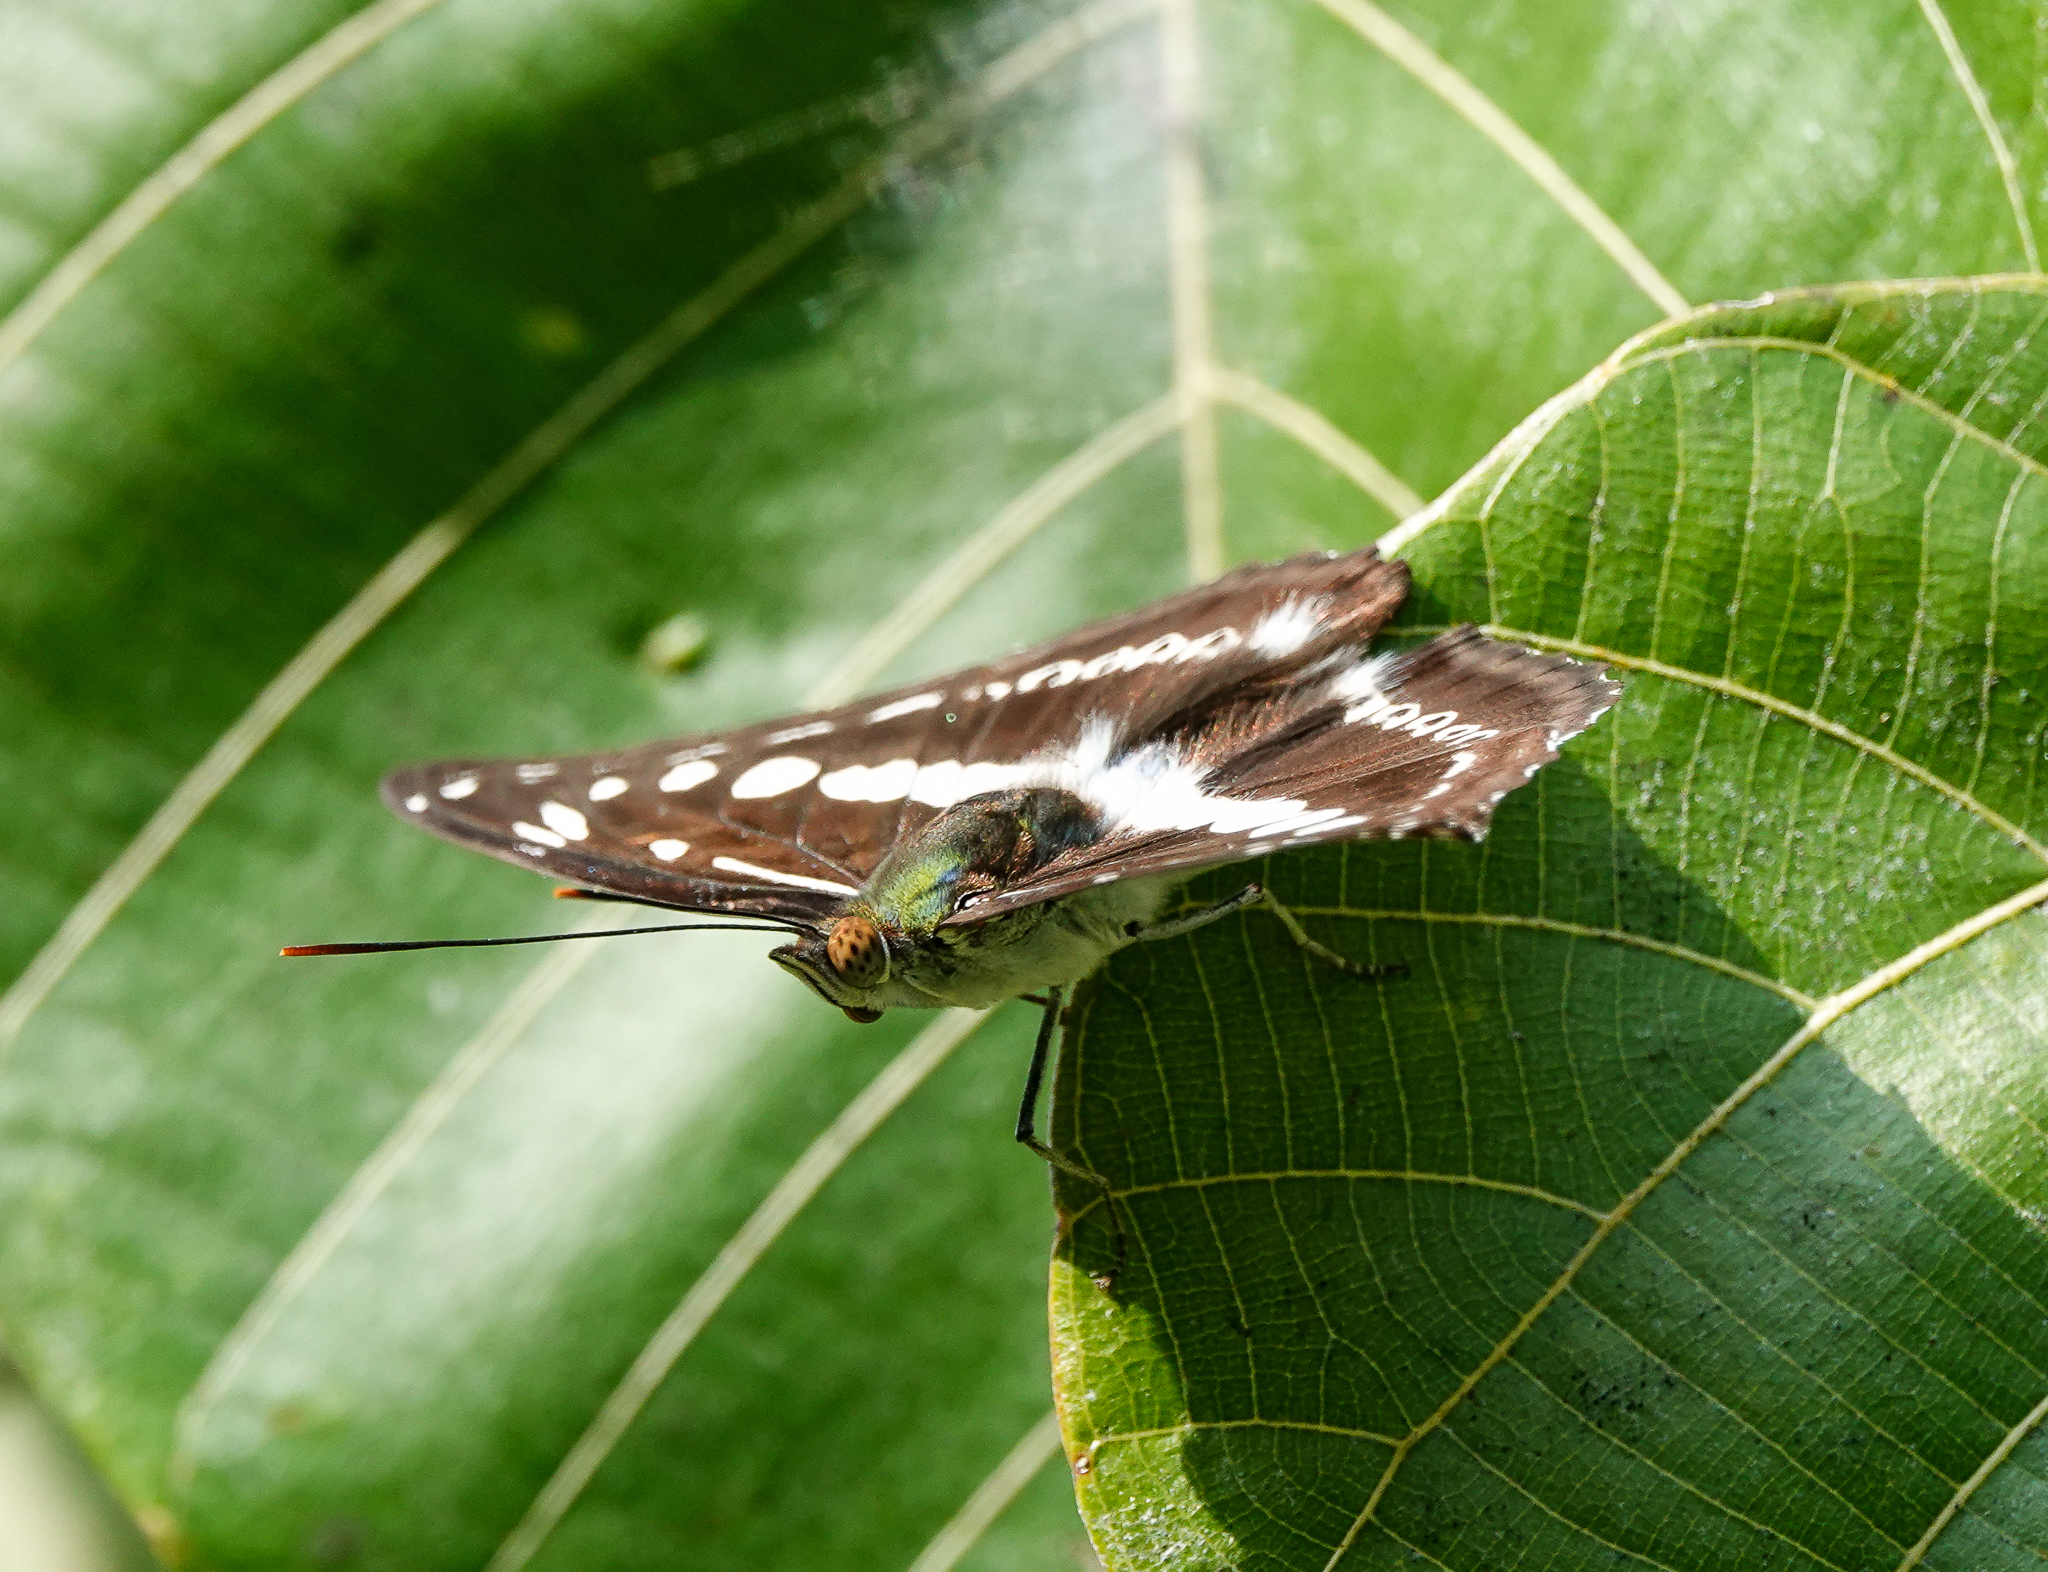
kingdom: Animalia
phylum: Arthropoda
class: Insecta
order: Lepidoptera
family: Nymphalidae
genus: Parathyma
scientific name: Parathyma asura
